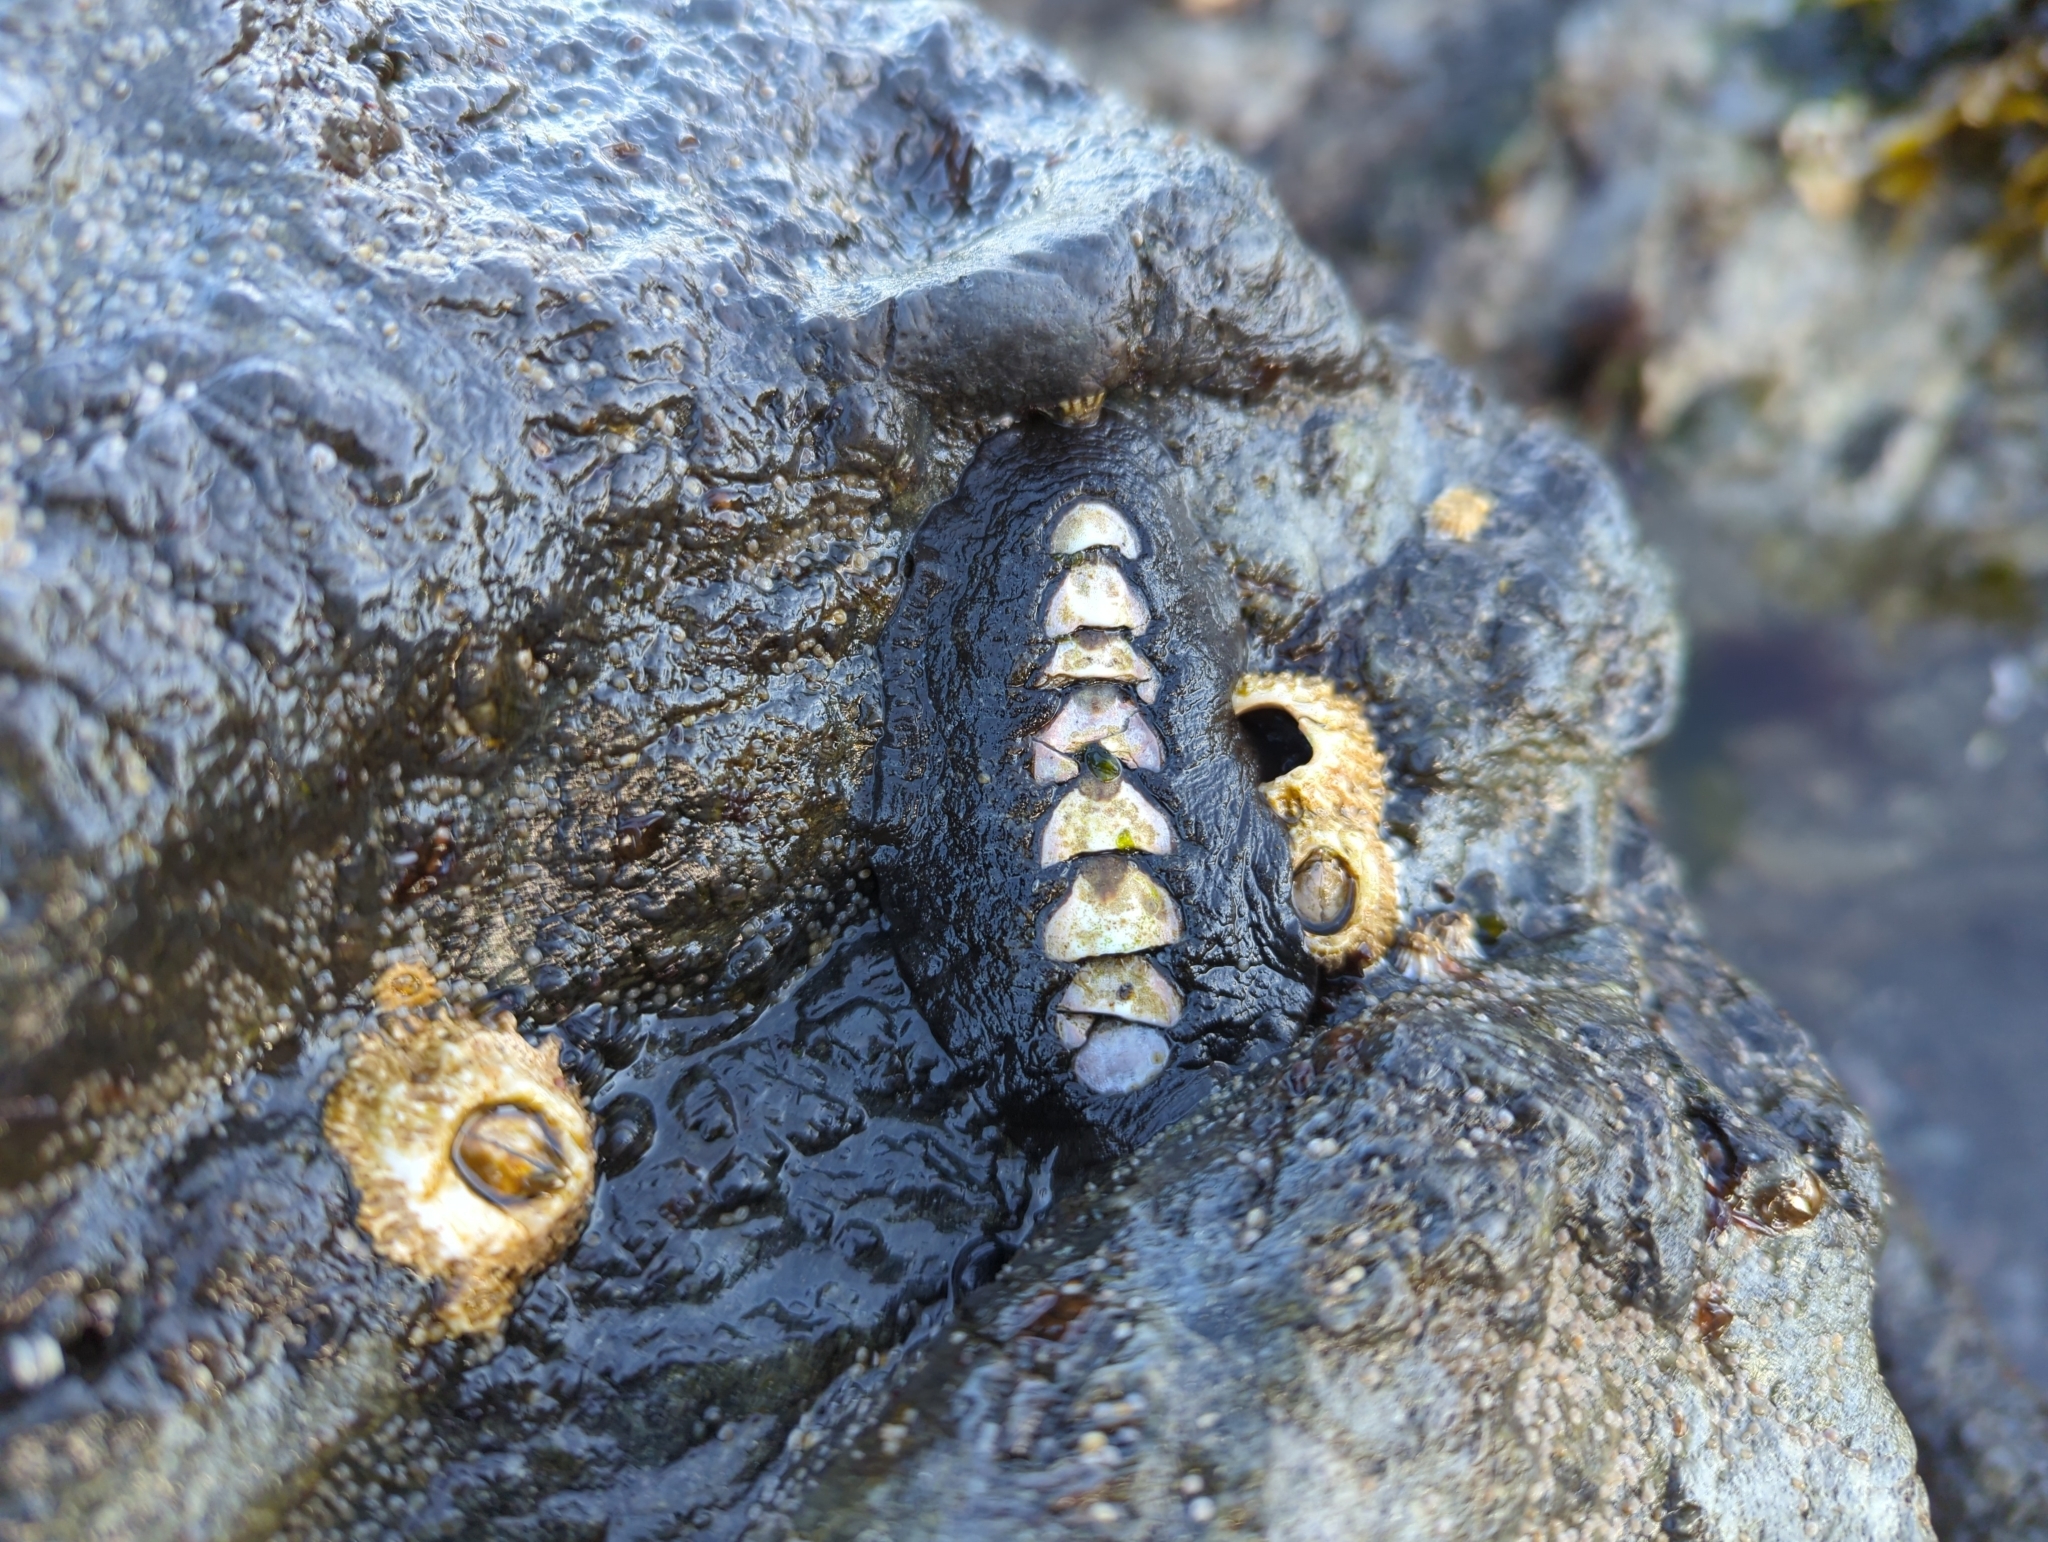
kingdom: Animalia
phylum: Mollusca
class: Polyplacophora
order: Chitonida
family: Mopaliidae
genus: Katharina
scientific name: Katharina tunicata
